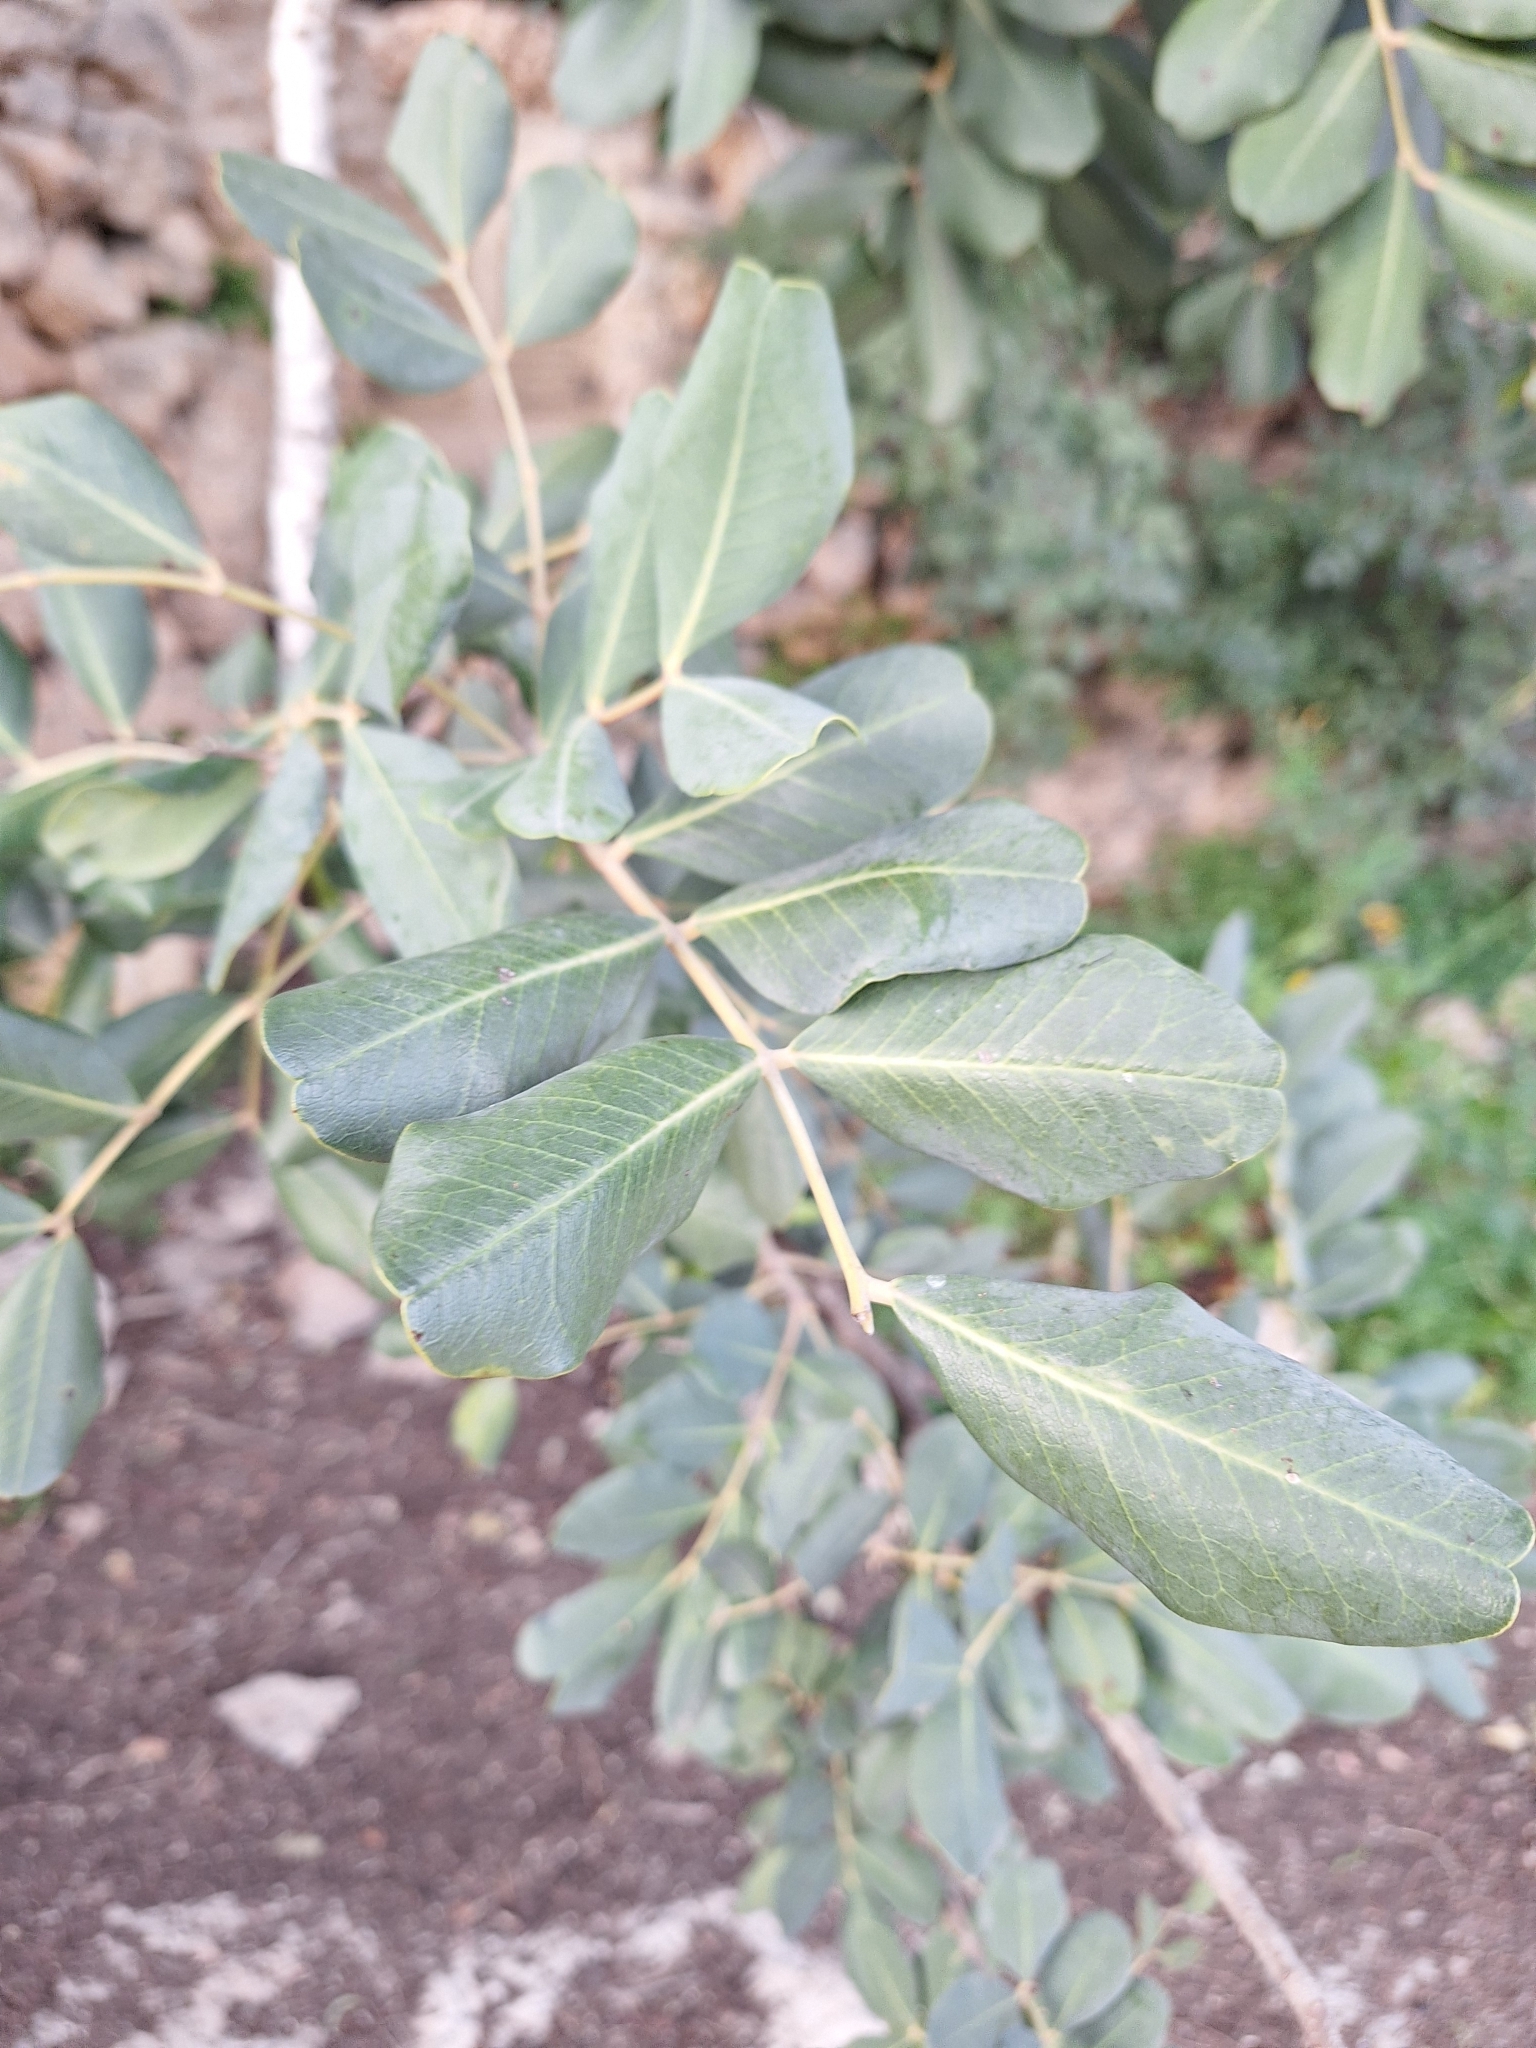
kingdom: Plantae
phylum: Tracheophyta
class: Magnoliopsida
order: Fabales
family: Fabaceae
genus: Ceratonia
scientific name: Ceratonia siliqua
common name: Carob
